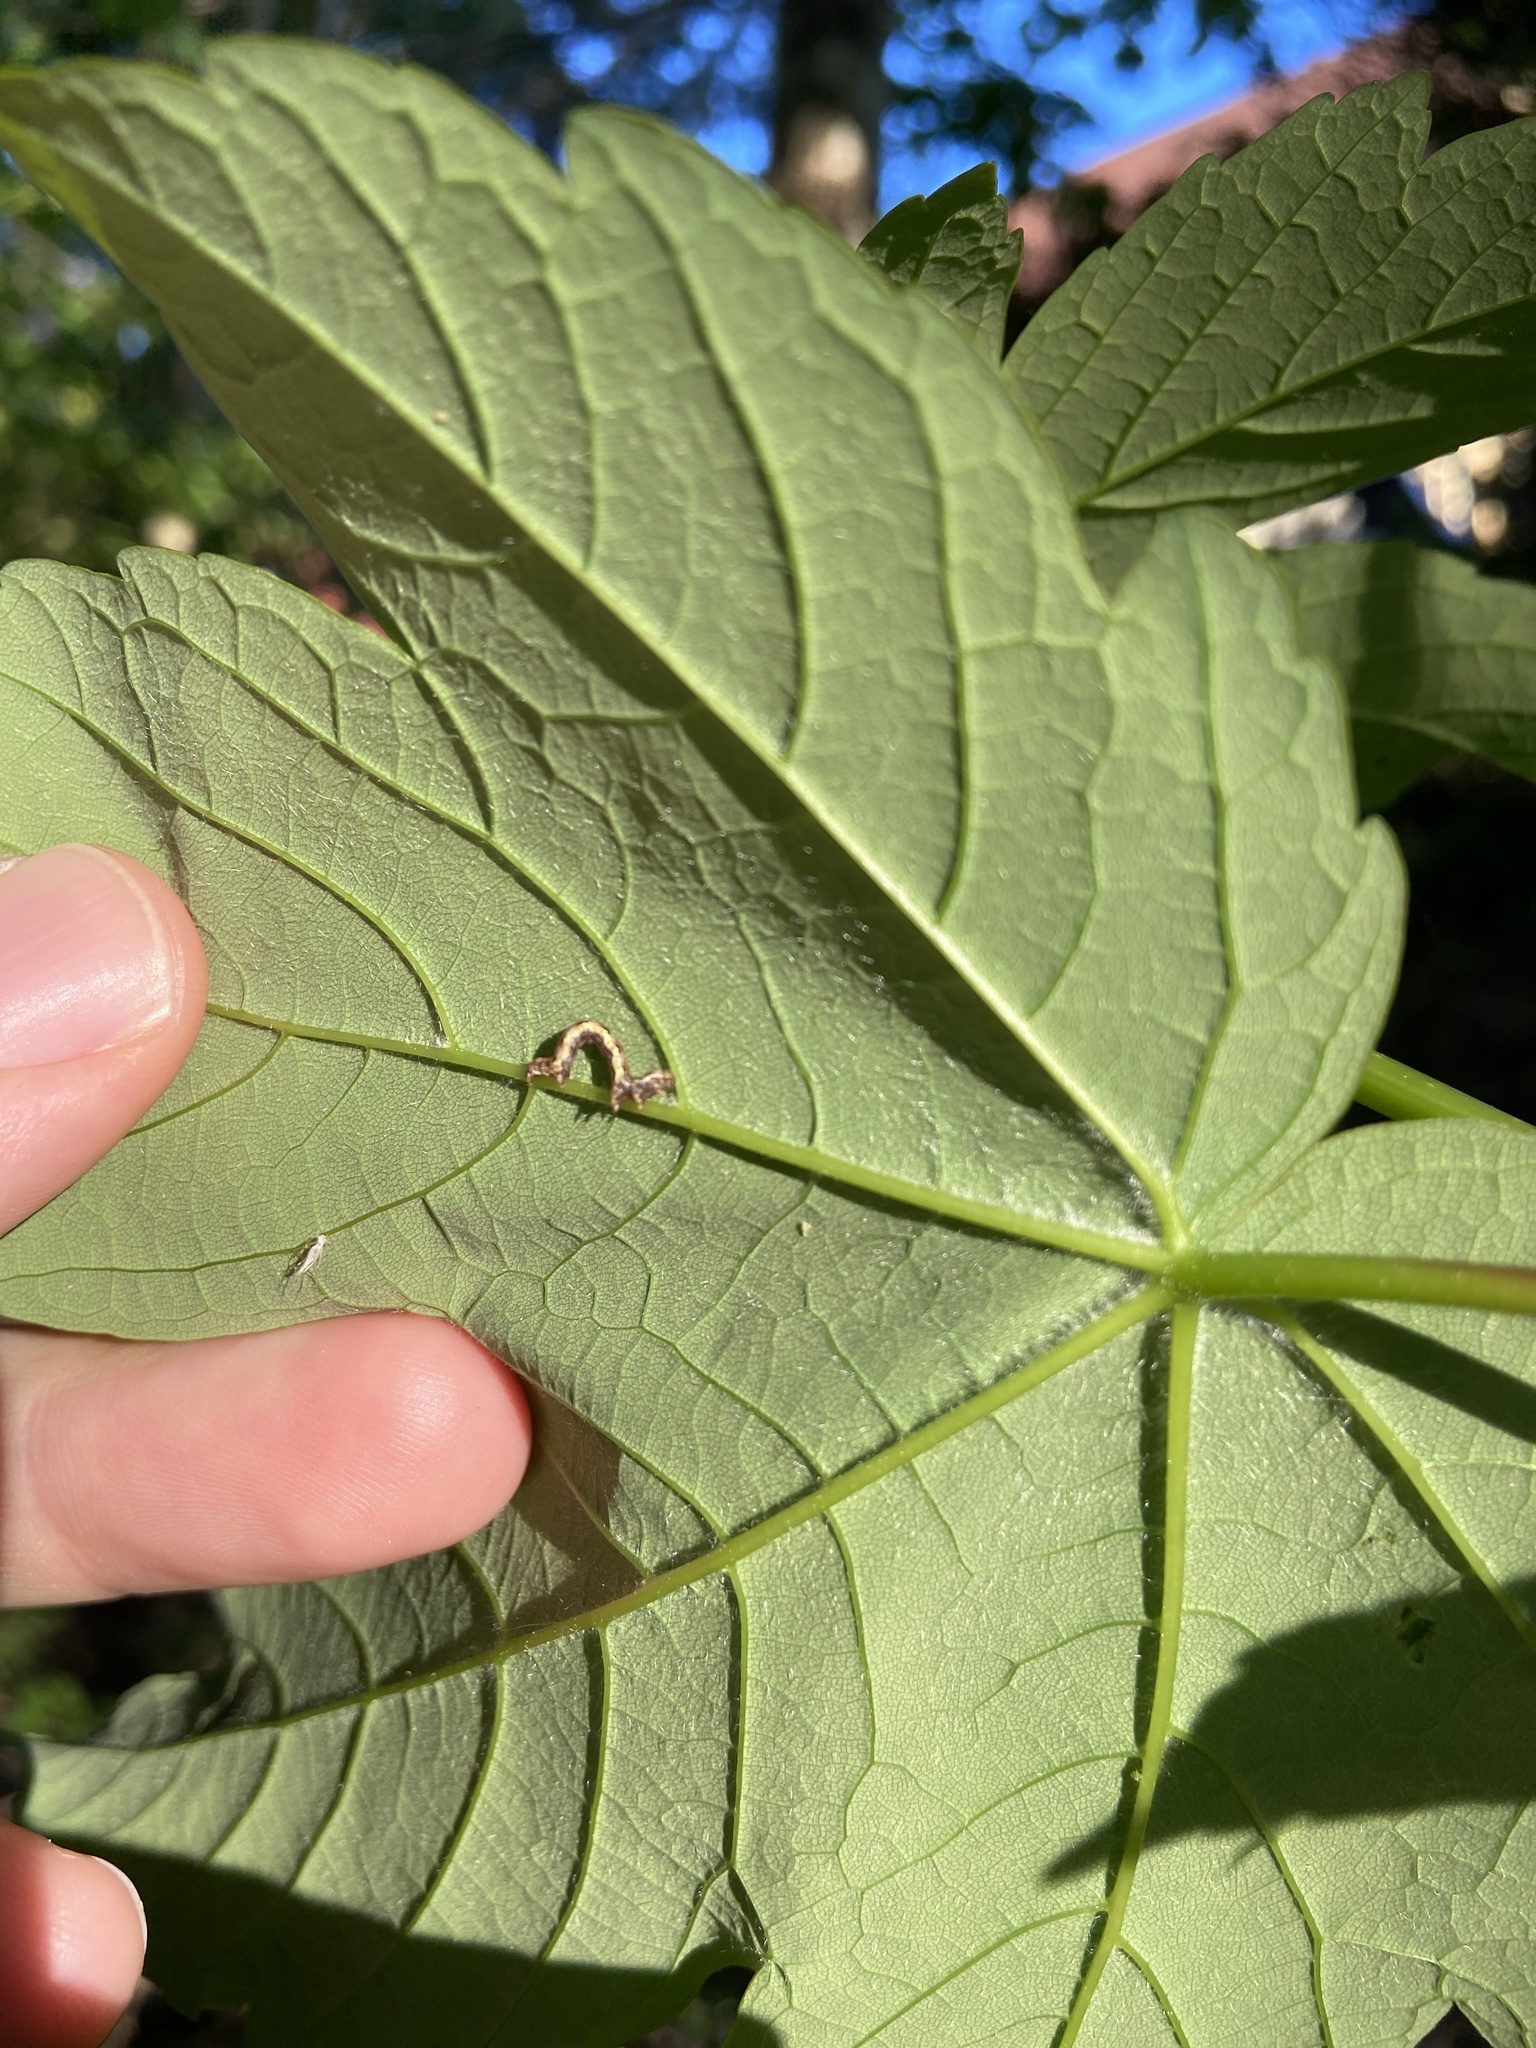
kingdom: Animalia
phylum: Arthropoda
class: Insecta
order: Lepidoptera
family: Geometridae
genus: Erannis
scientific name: Erannis defoliaria
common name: Mottled umber
